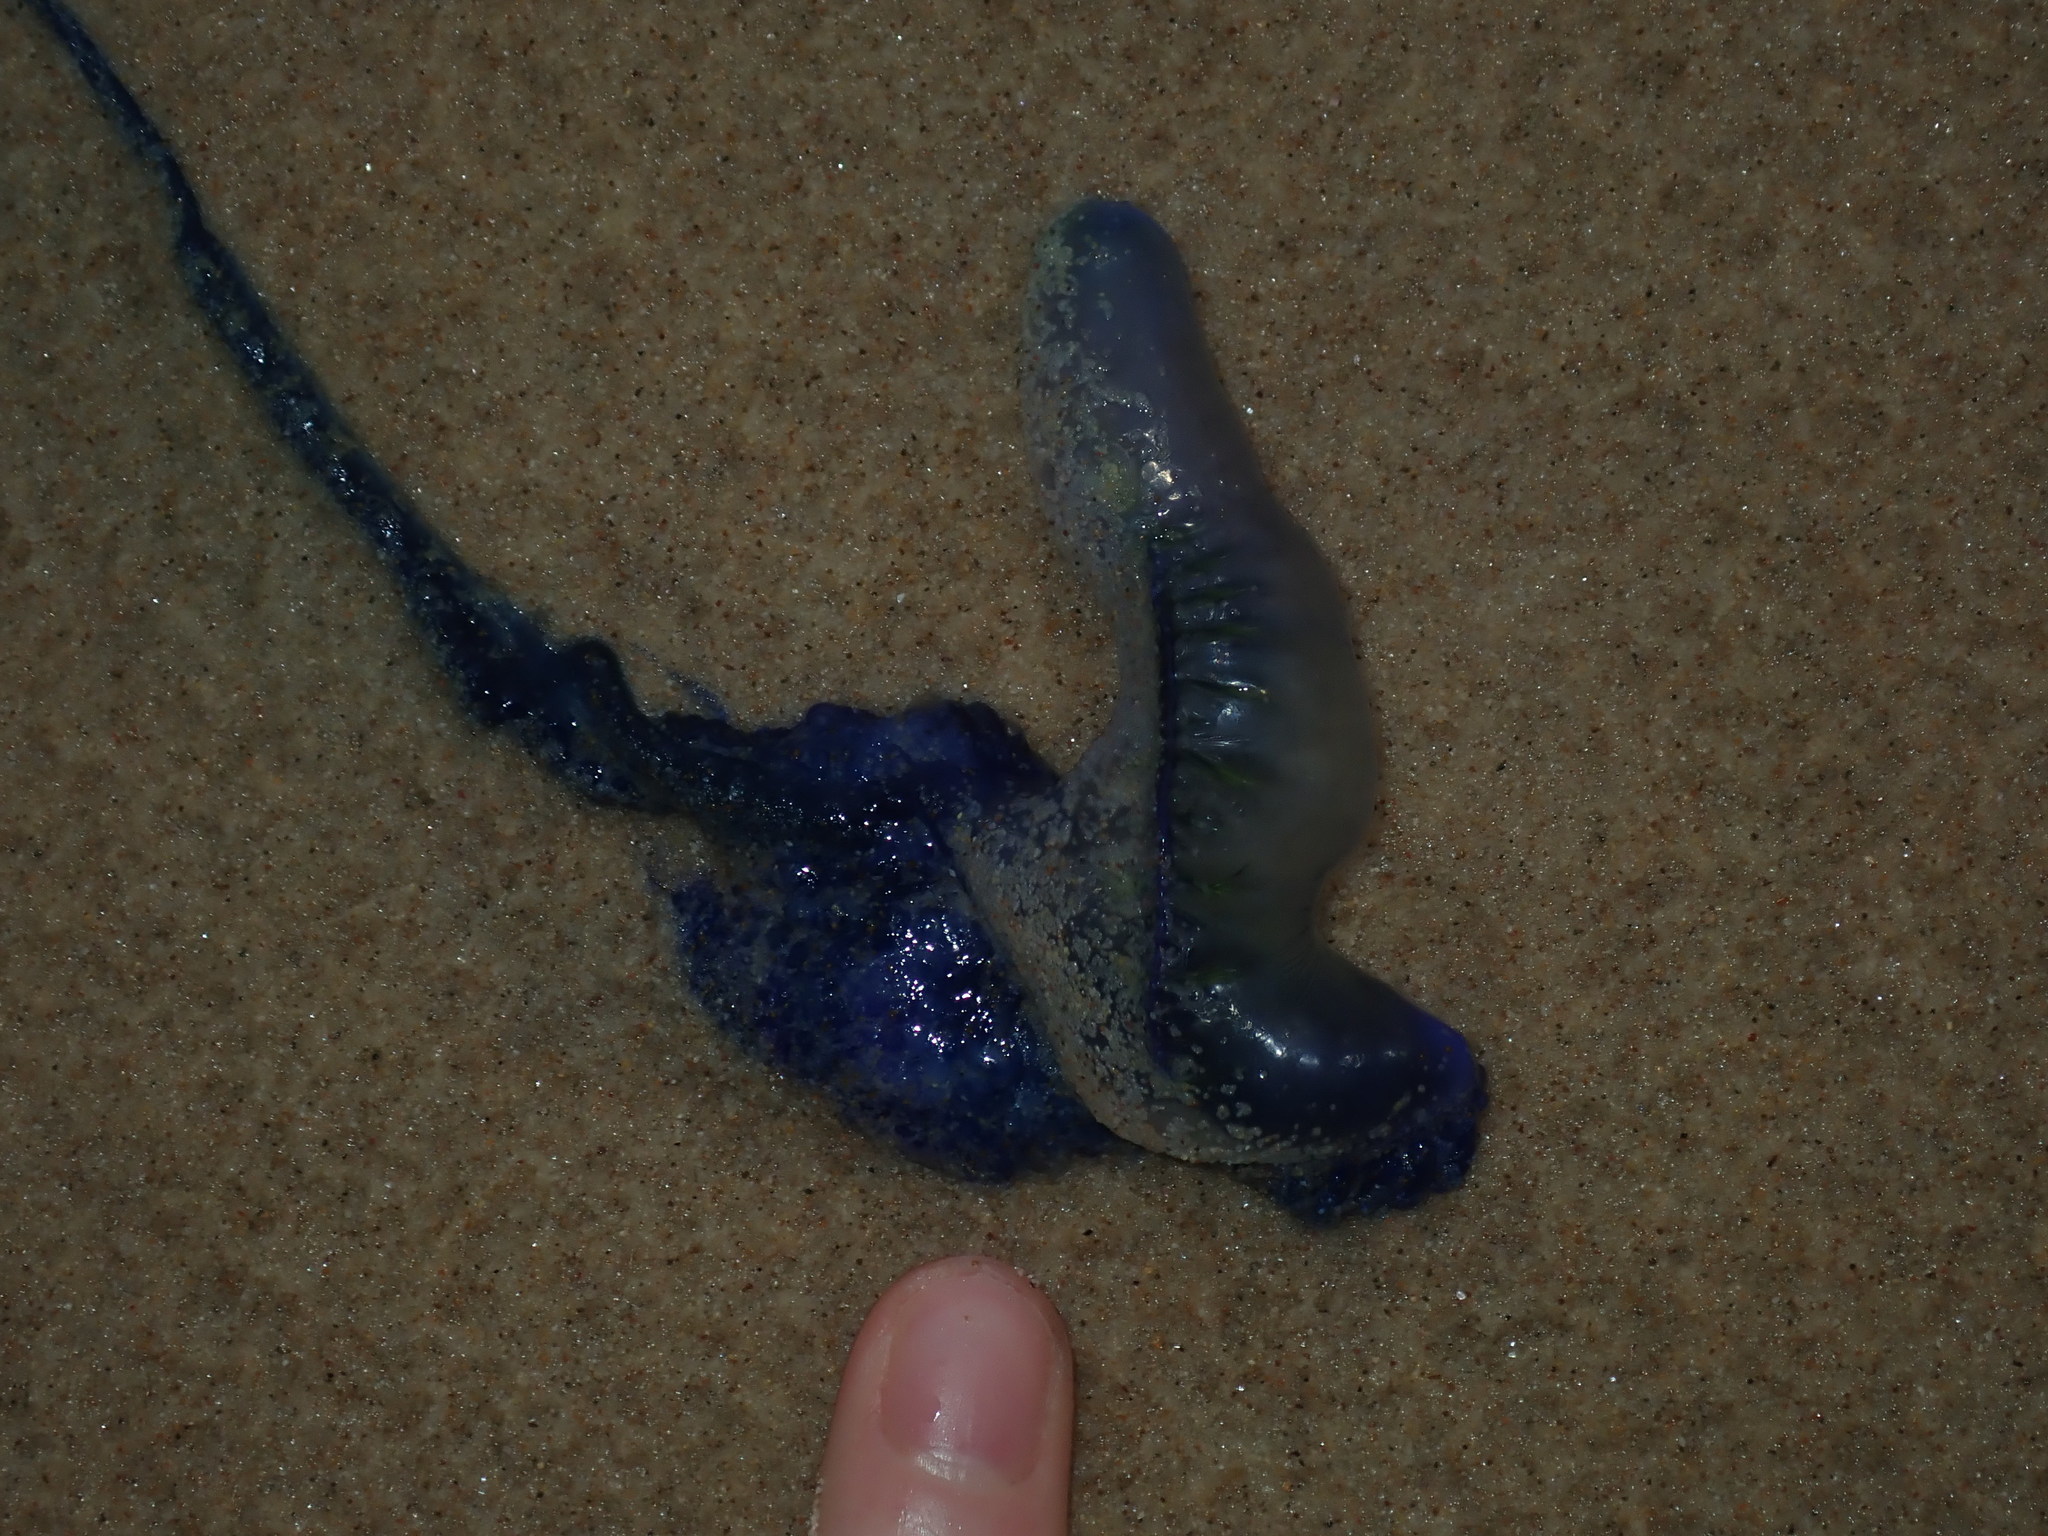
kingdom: Animalia
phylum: Cnidaria
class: Hydrozoa
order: Siphonophorae
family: Physaliidae
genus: Physalia
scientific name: Physalia physalis
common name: Portuguese man-of-war
